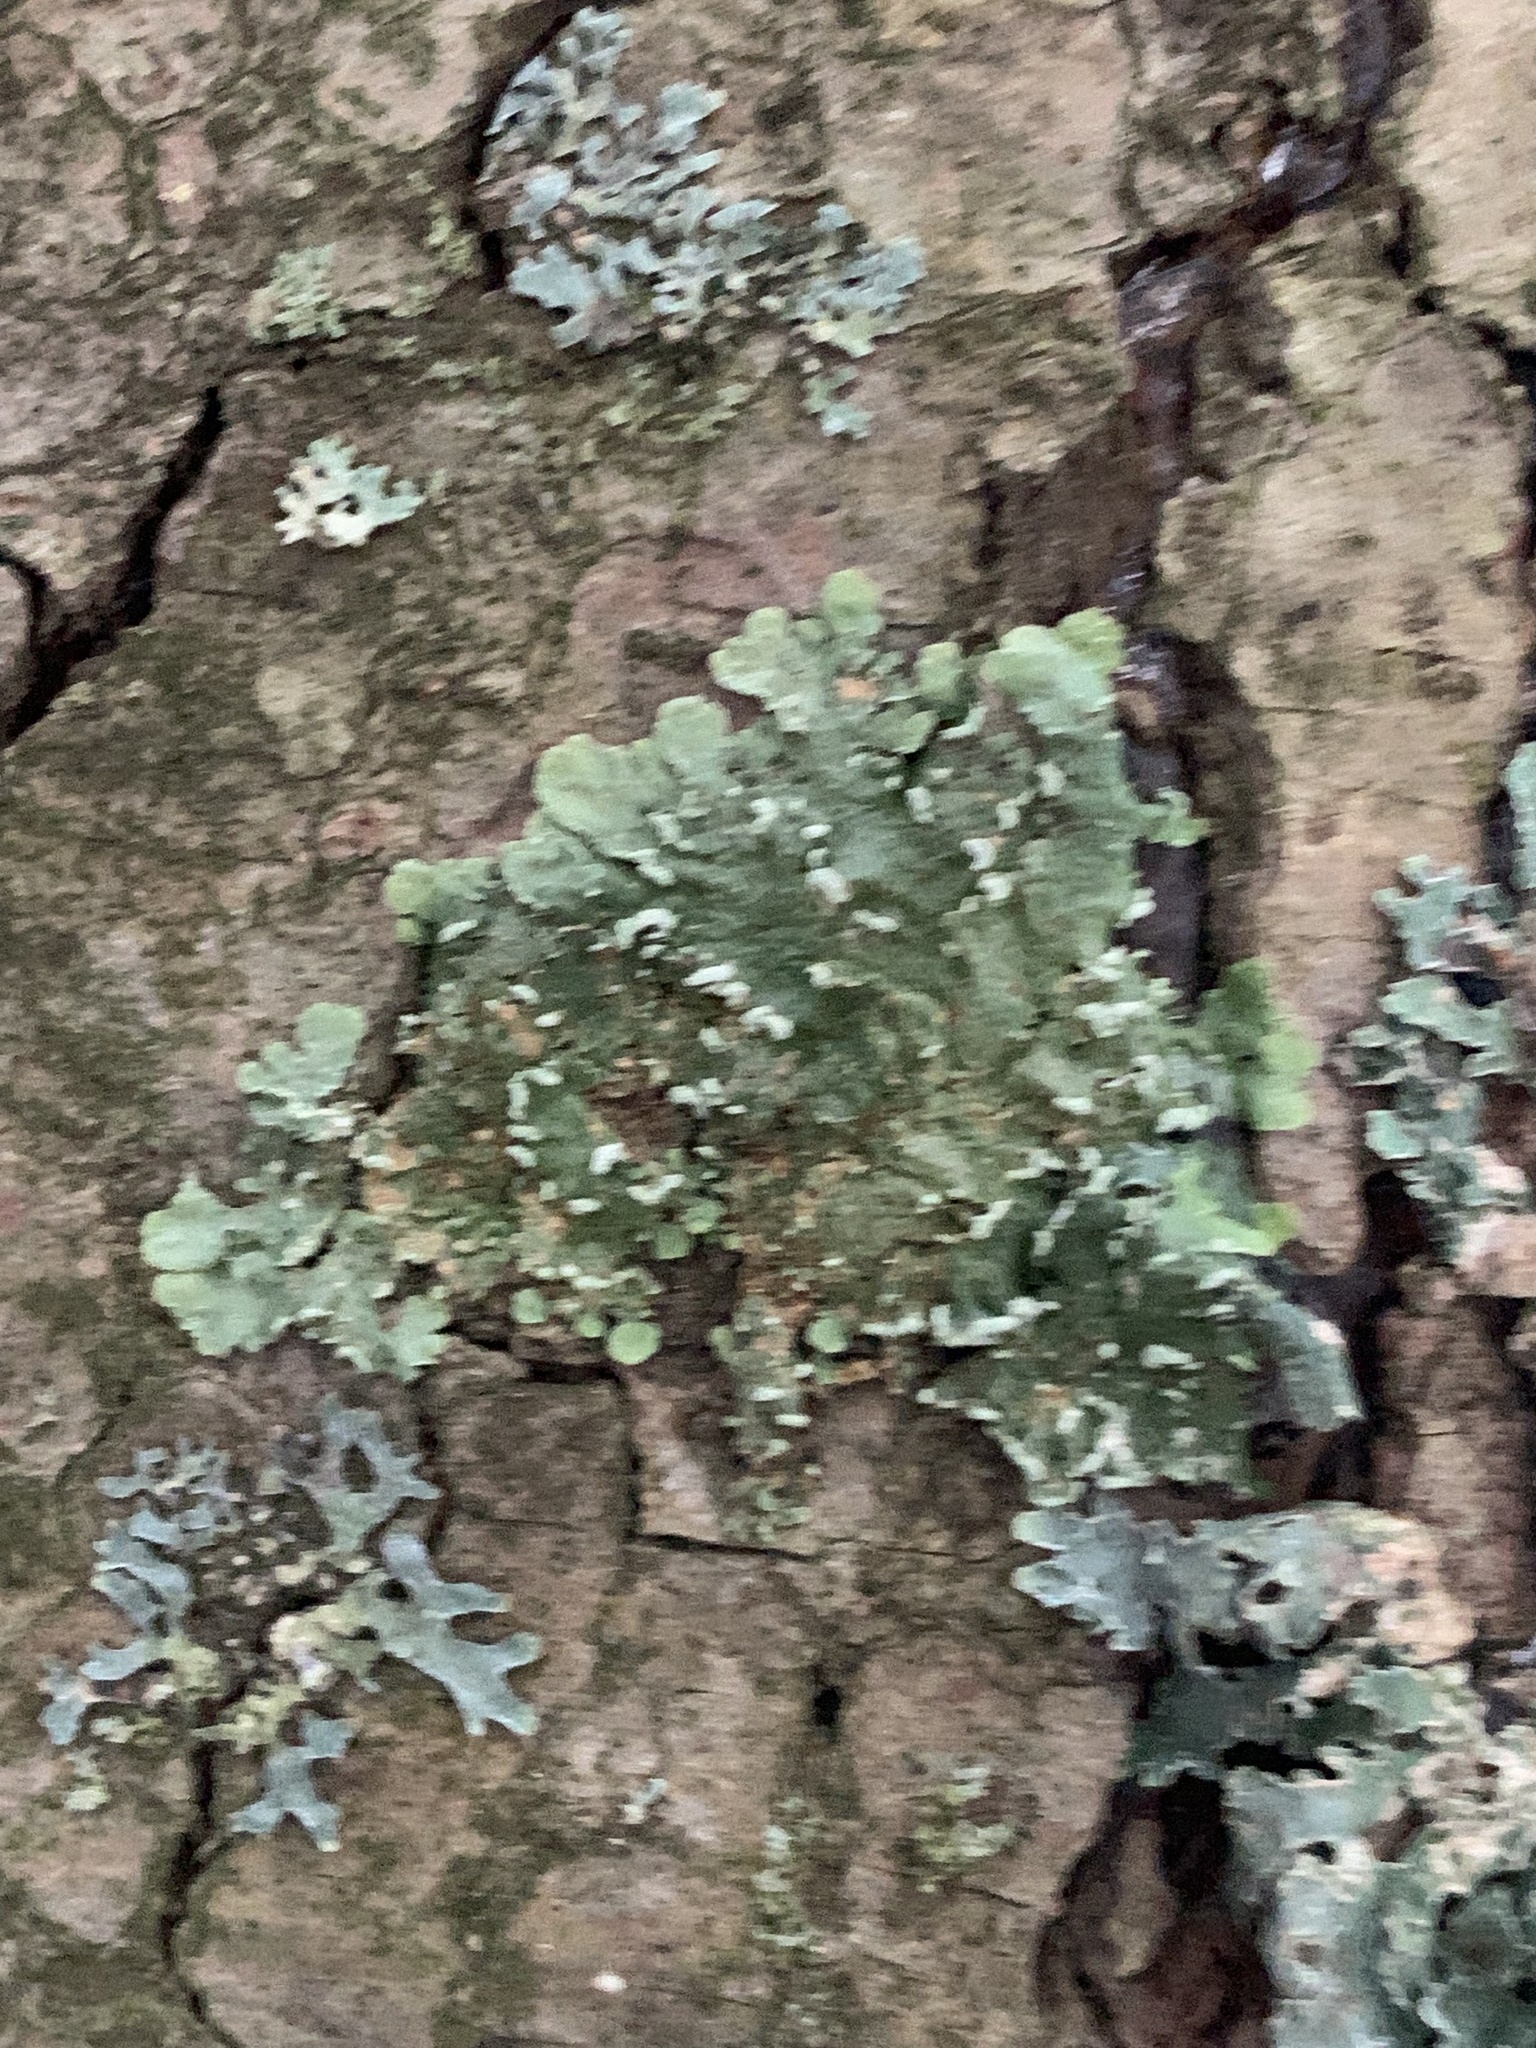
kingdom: Fungi
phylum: Ascomycota
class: Lecanoromycetes
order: Lecanorales
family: Parmeliaceae
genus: Flavopunctelia
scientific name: Flavopunctelia soredica
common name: Powder-edged speckled greenshield
